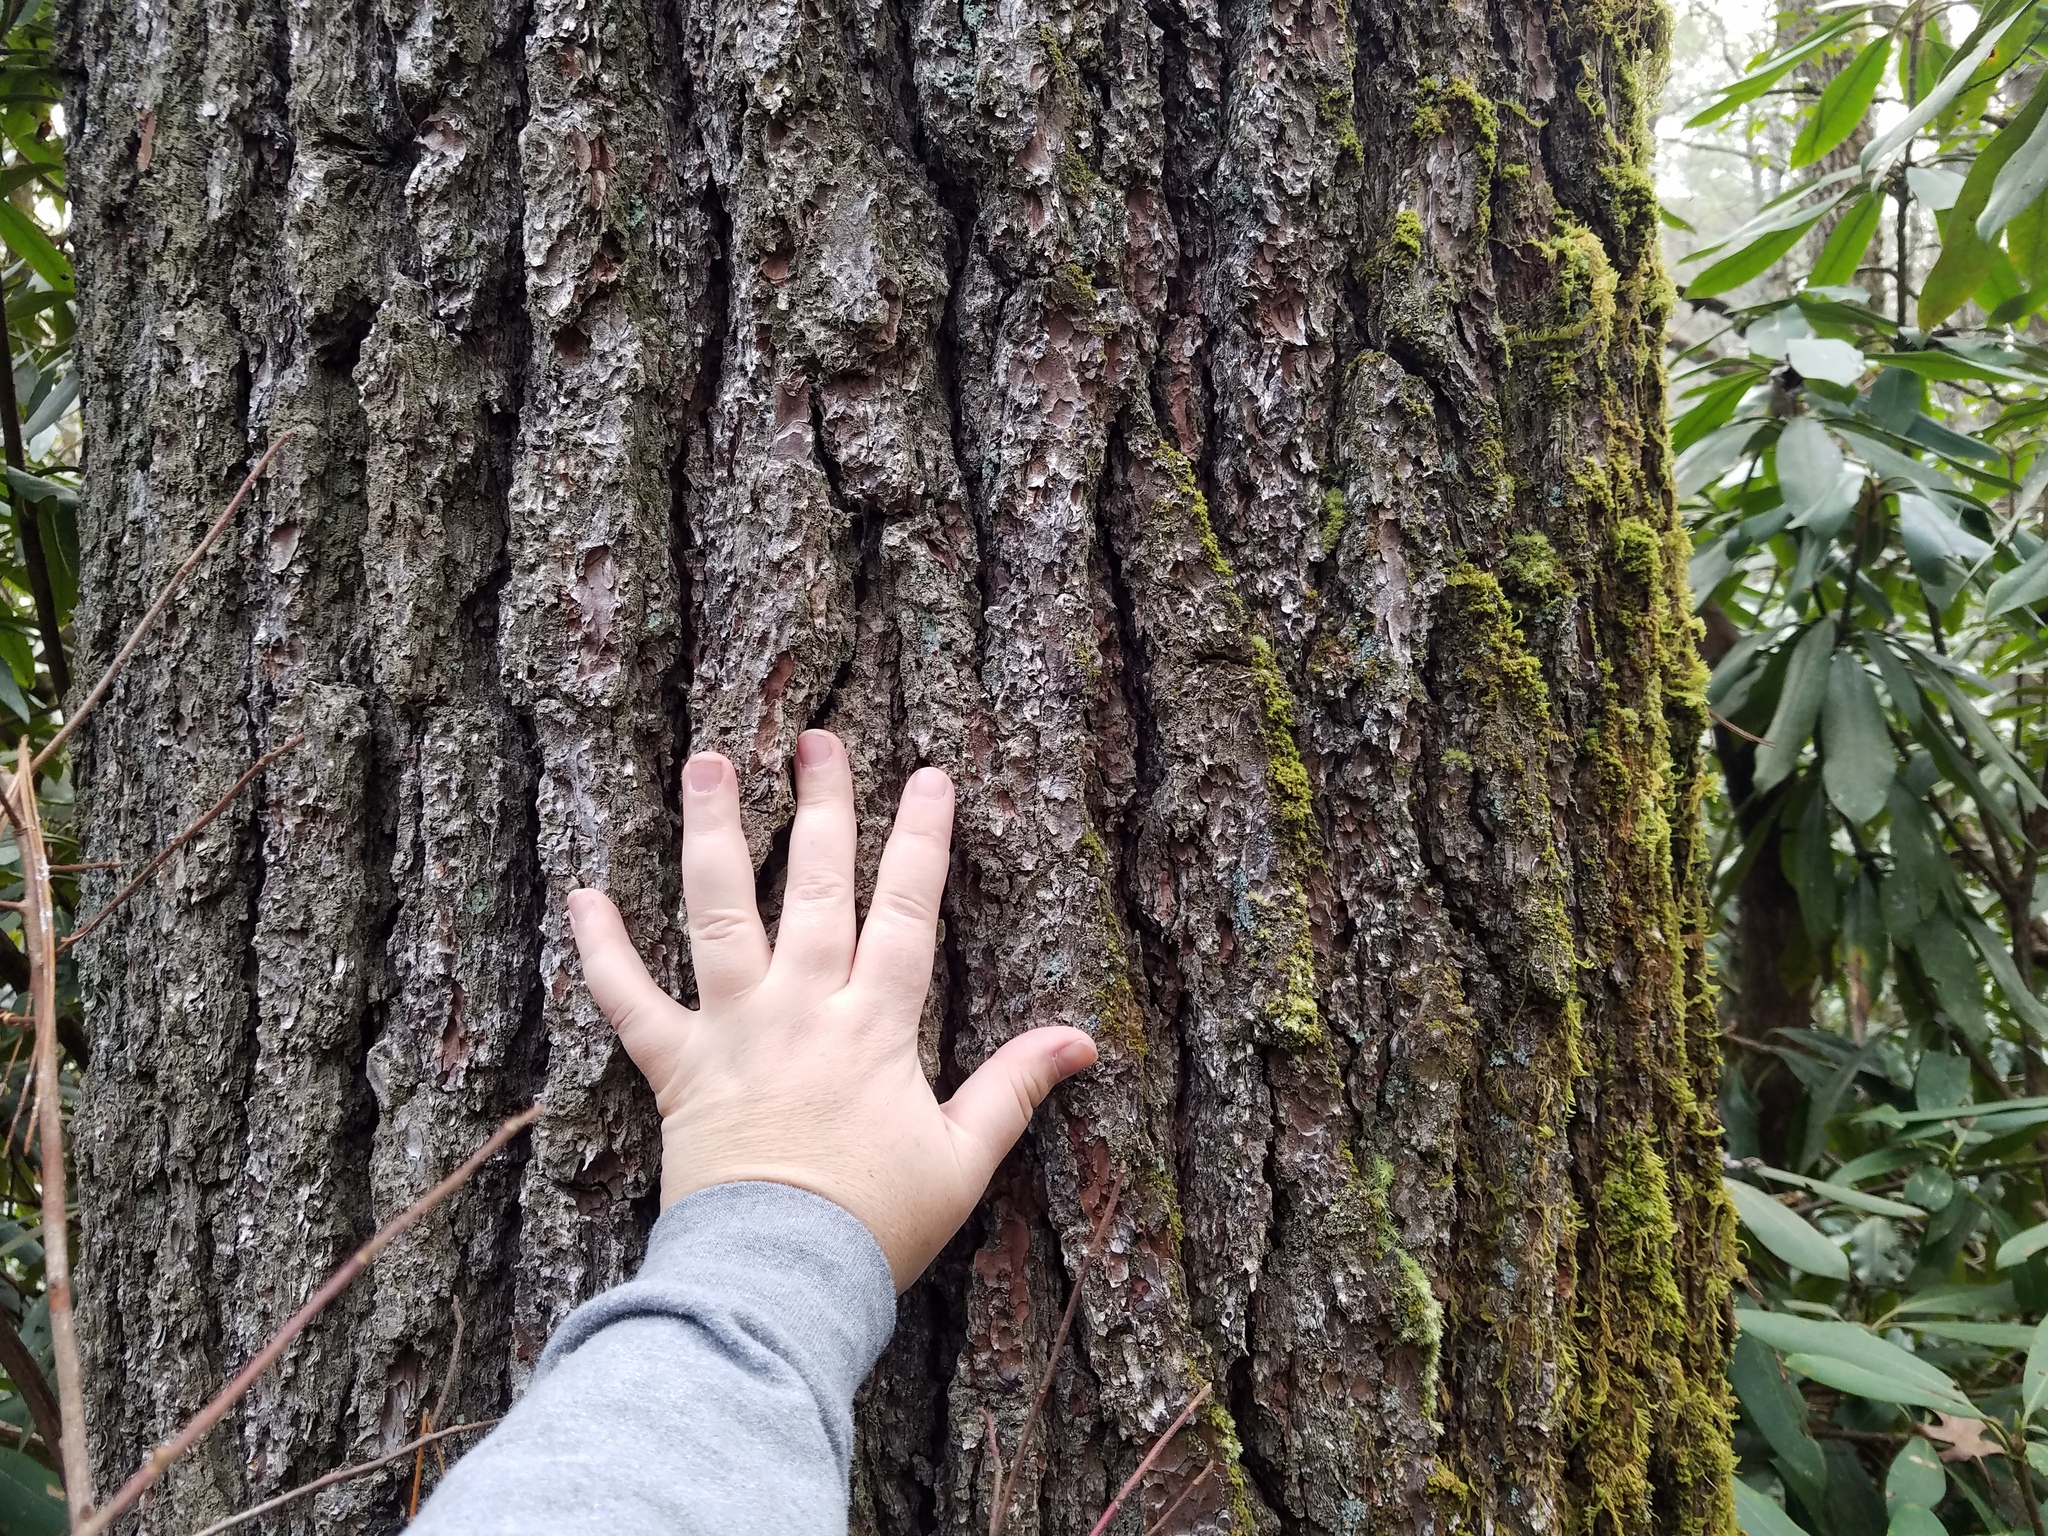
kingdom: Plantae
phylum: Tracheophyta
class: Pinopsida
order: Pinales
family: Pinaceae
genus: Pinus
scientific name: Pinus strobus
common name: Weymouth pine
